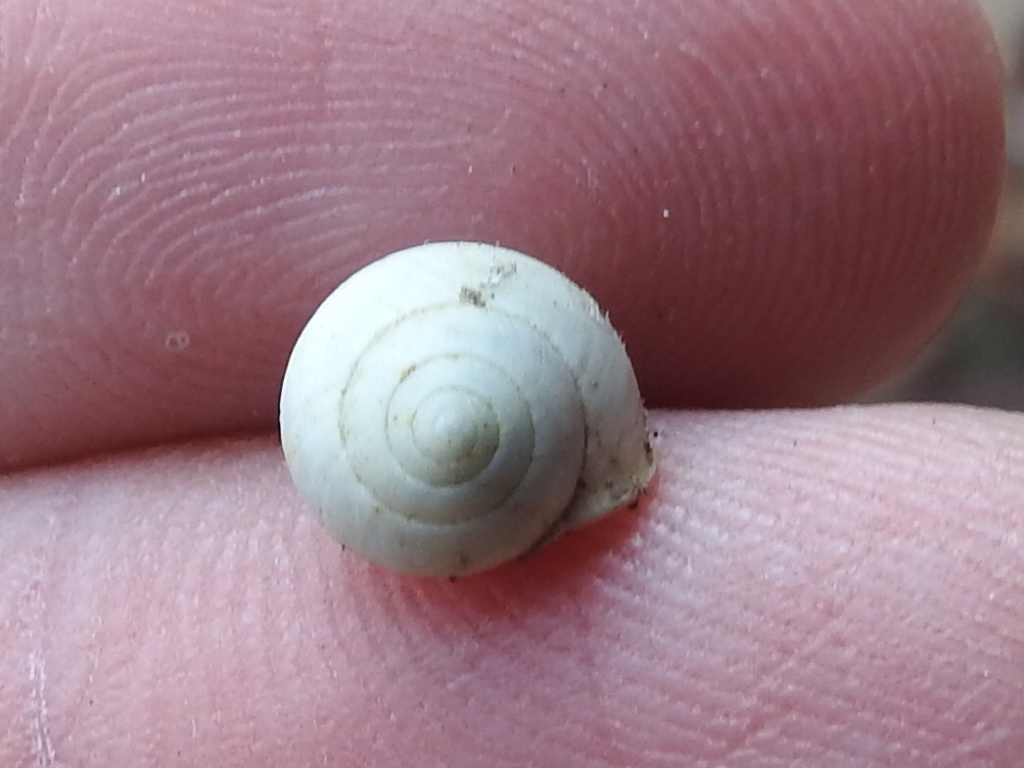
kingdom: Animalia
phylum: Mollusca
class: Gastropoda
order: Cycloneritida
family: Helicinidae
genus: Helicina
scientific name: Helicina orbiculata
